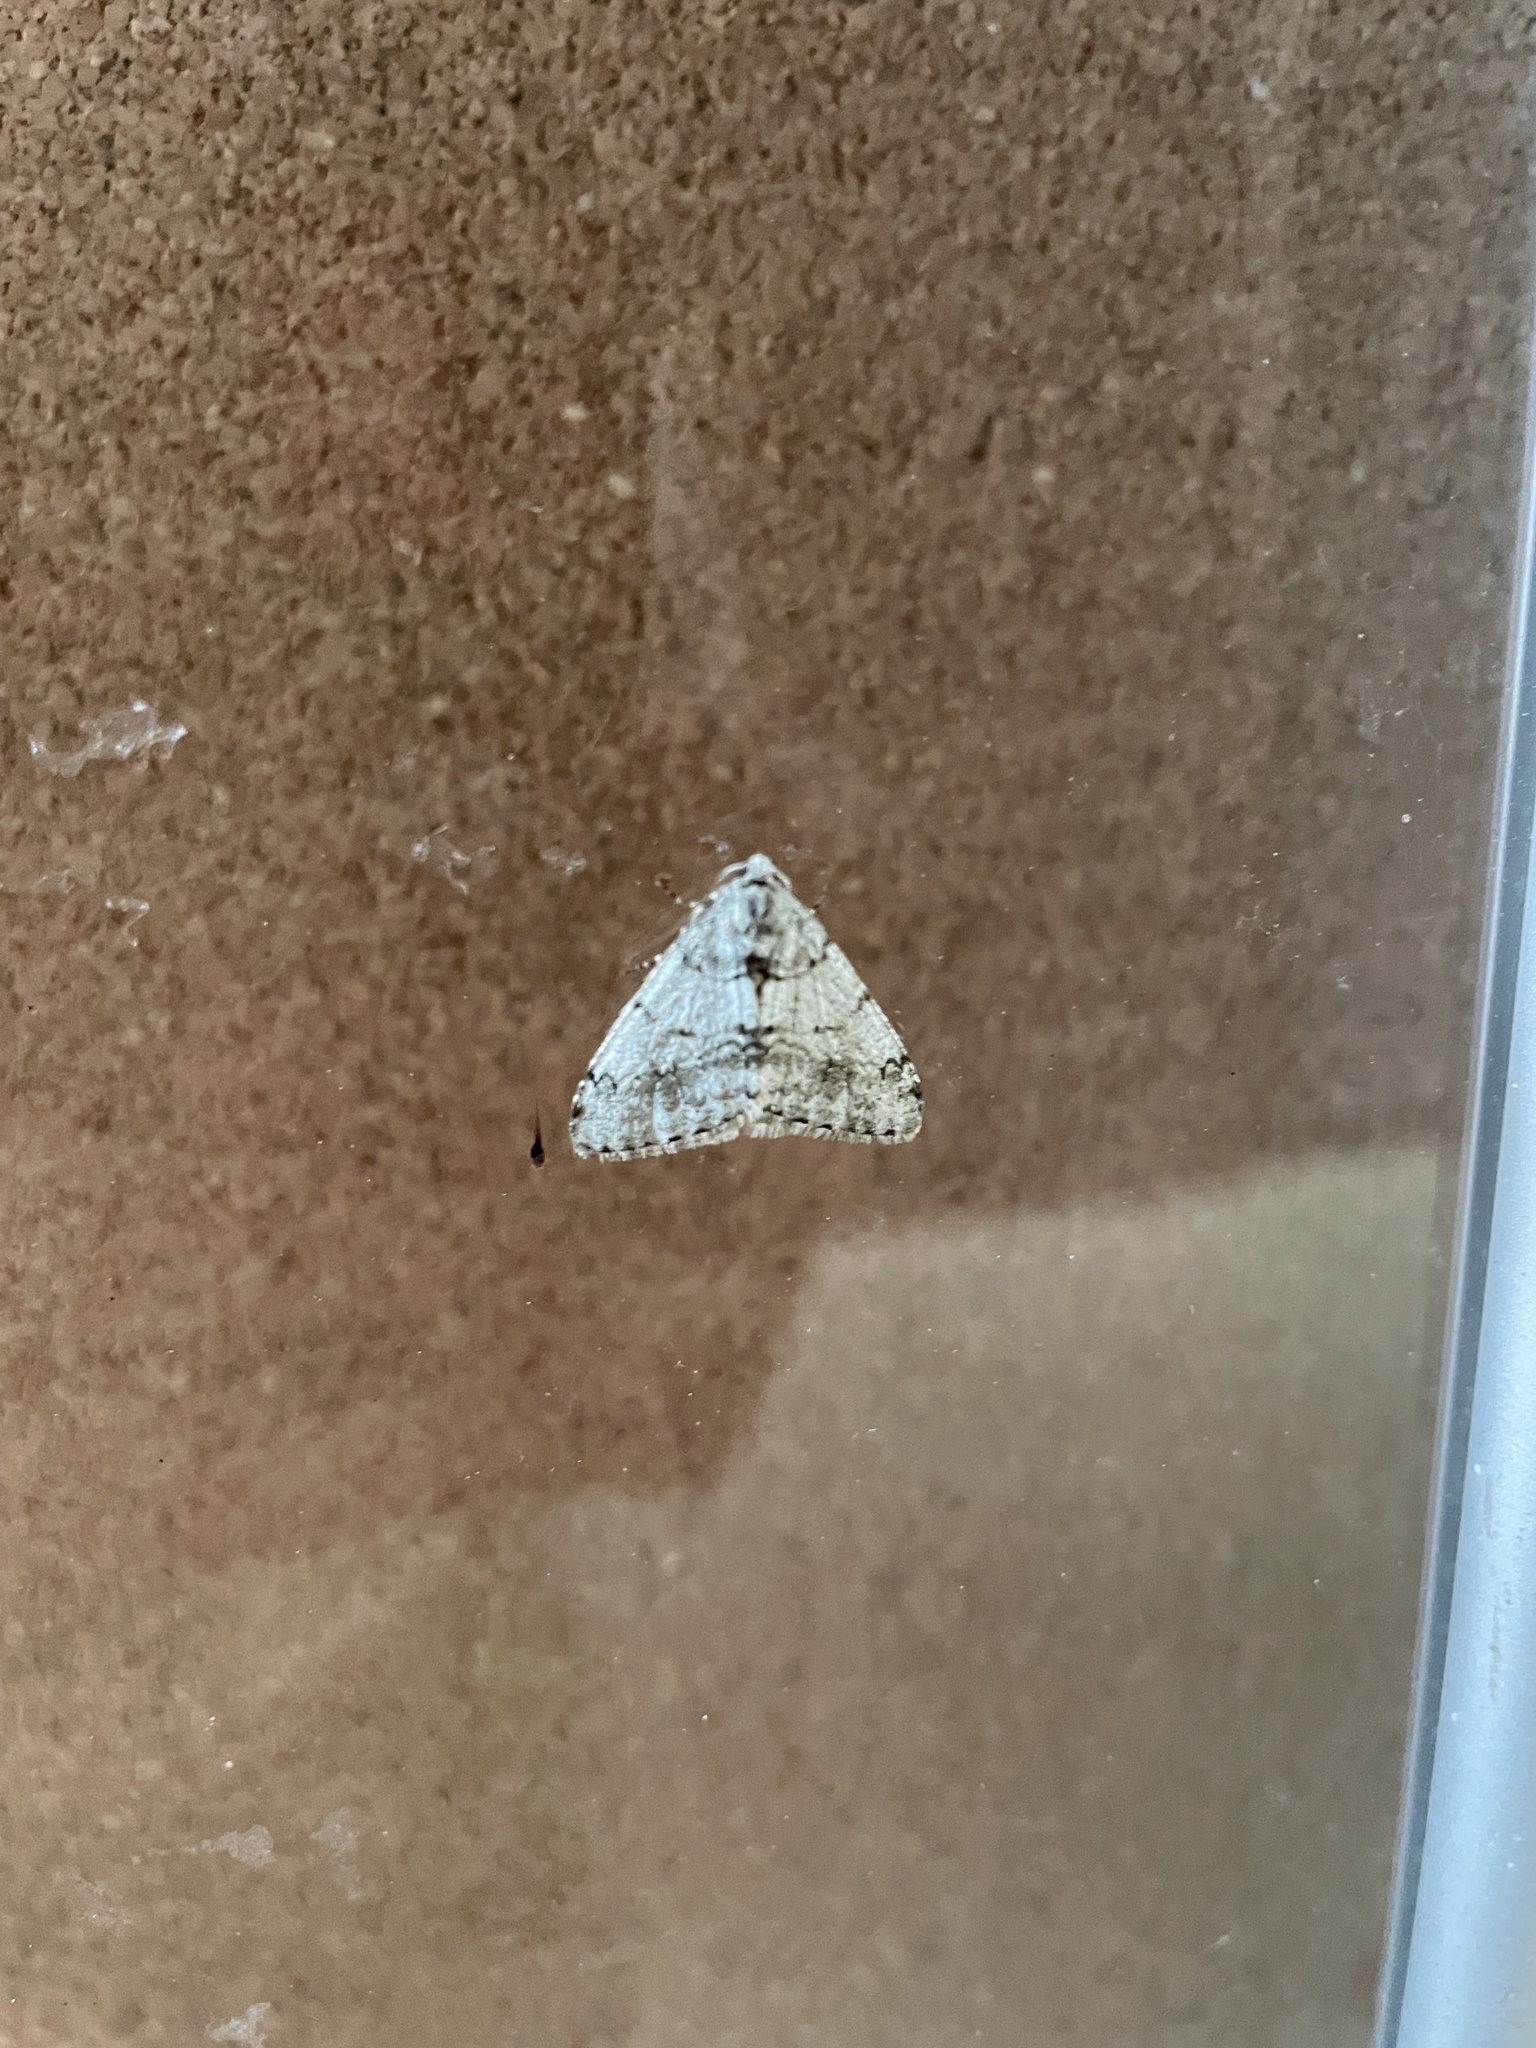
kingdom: Animalia
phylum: Arthropoda
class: Insecta
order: Lepidoptera
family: Geometridae
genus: Phigalia
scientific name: Phigalia strigataria
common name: Small phigalia
